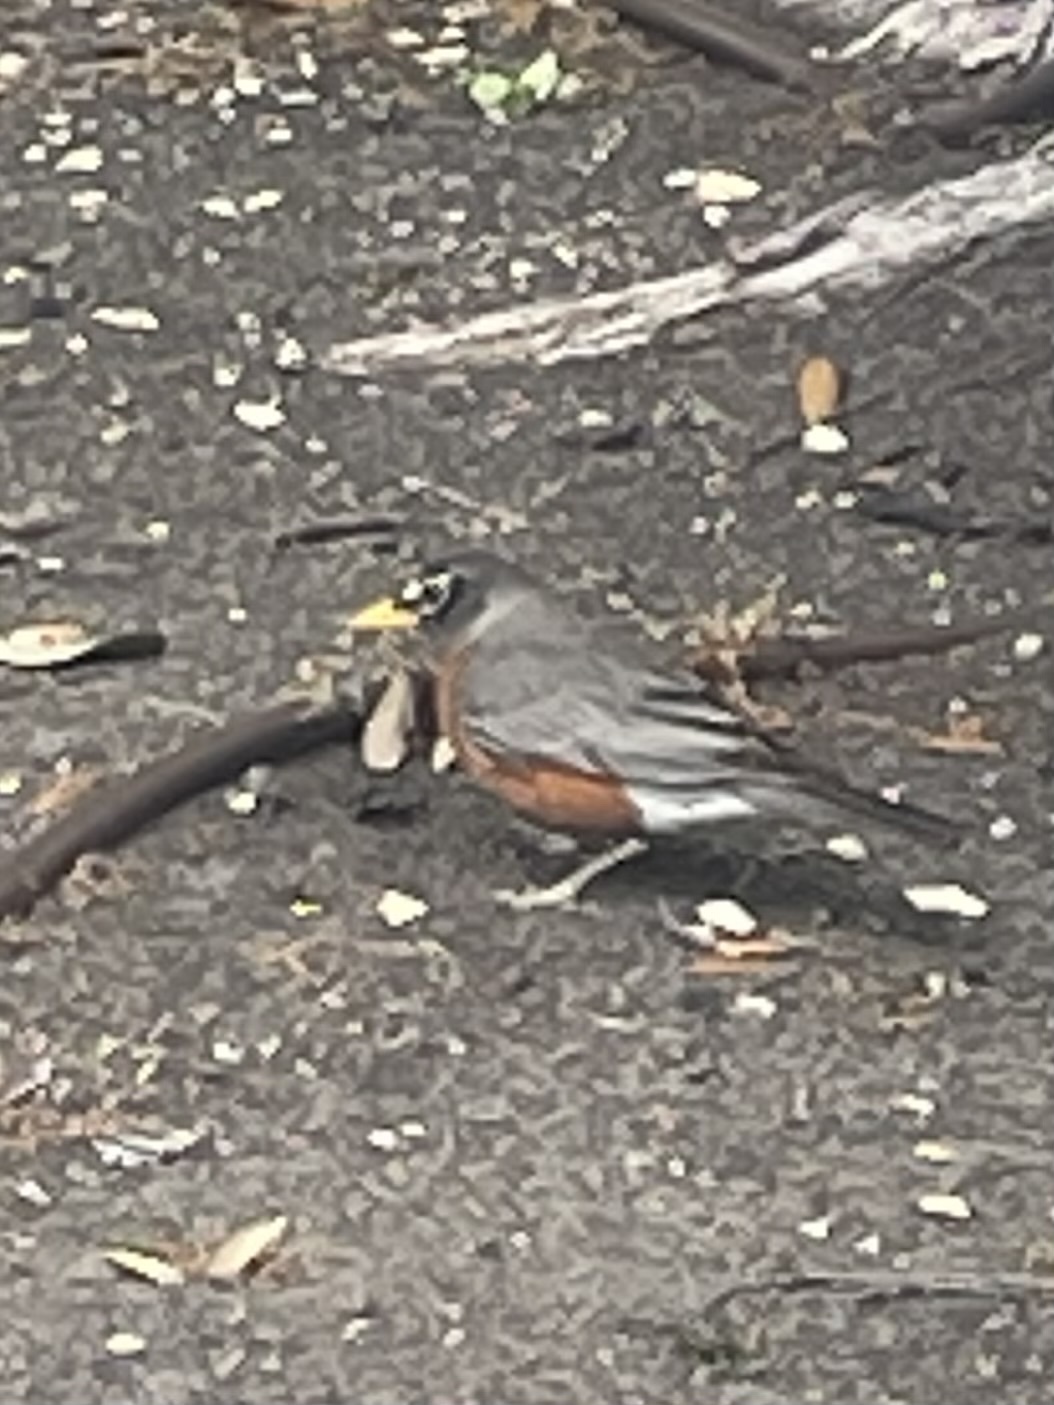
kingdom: Animalia
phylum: Chordata
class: Aves
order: Passeriformes
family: Turdidae
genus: Turdus
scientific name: Turdus migratorius
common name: American robin
